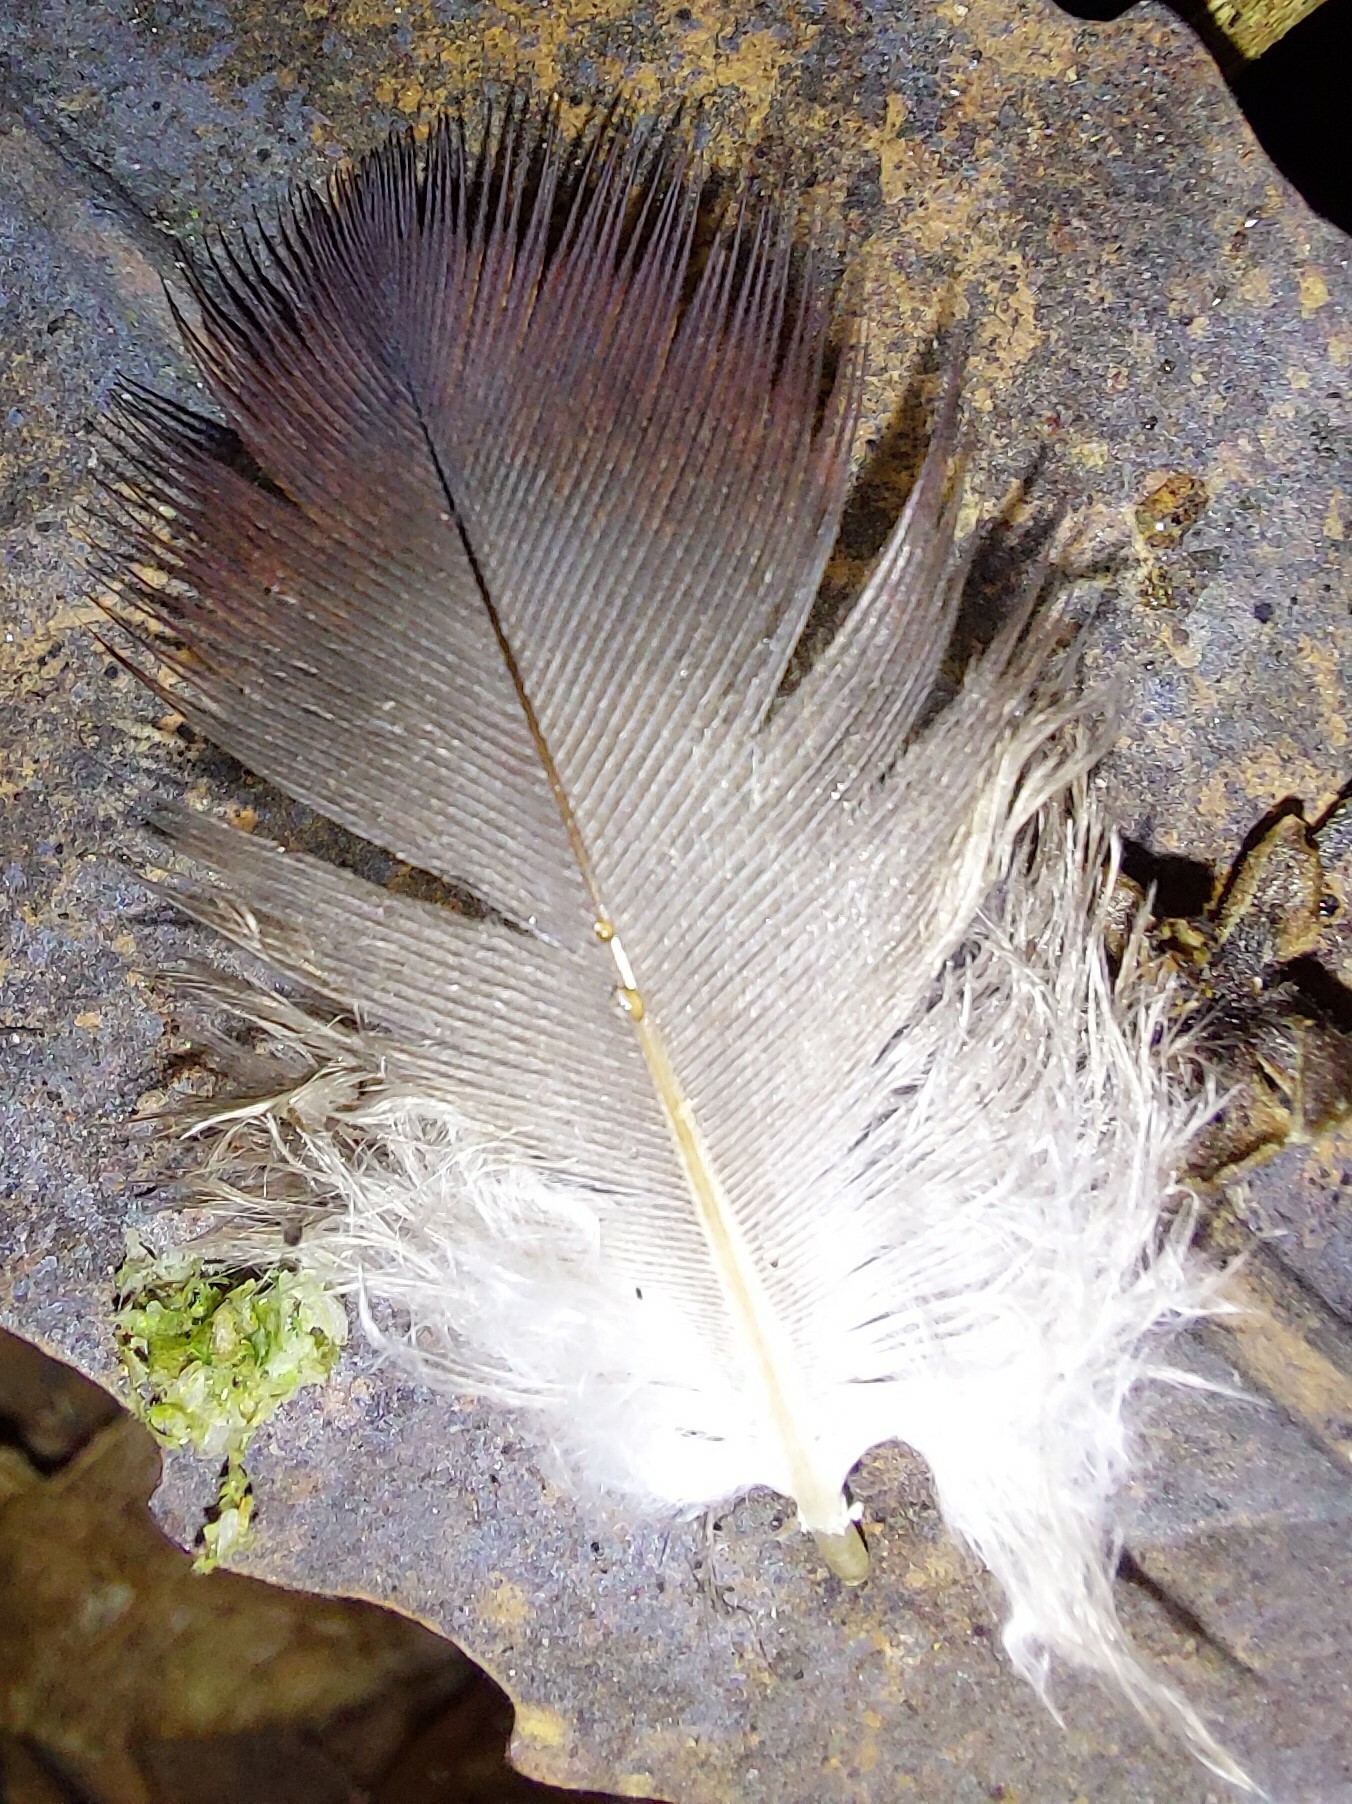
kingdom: Animalia
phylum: Chordata
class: Aves
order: Columbiformes
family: Columbidae
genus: Columba
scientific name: Columba livia
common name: Rock pigeon
